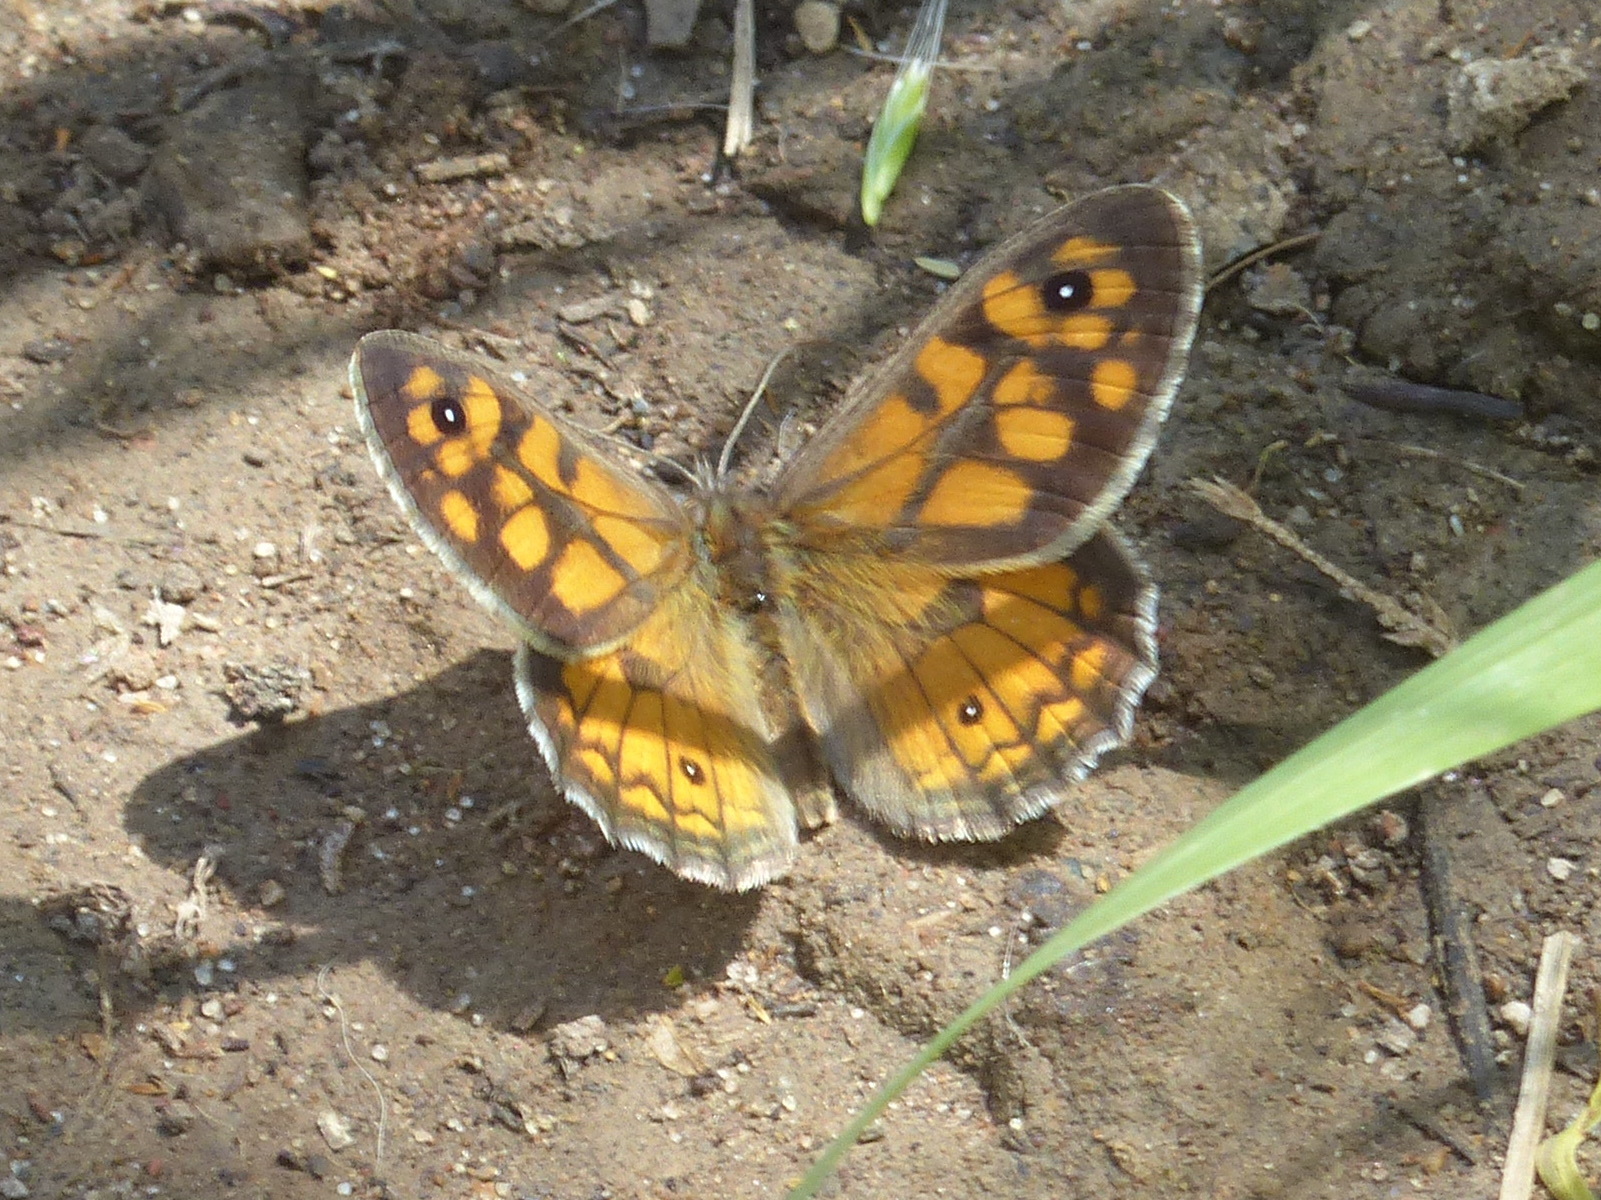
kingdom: Animalia
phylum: Arthropoda
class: Insecta
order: Lepidoptera
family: Nymphalidae
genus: Geitoneura
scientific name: Geitoneura klugii
